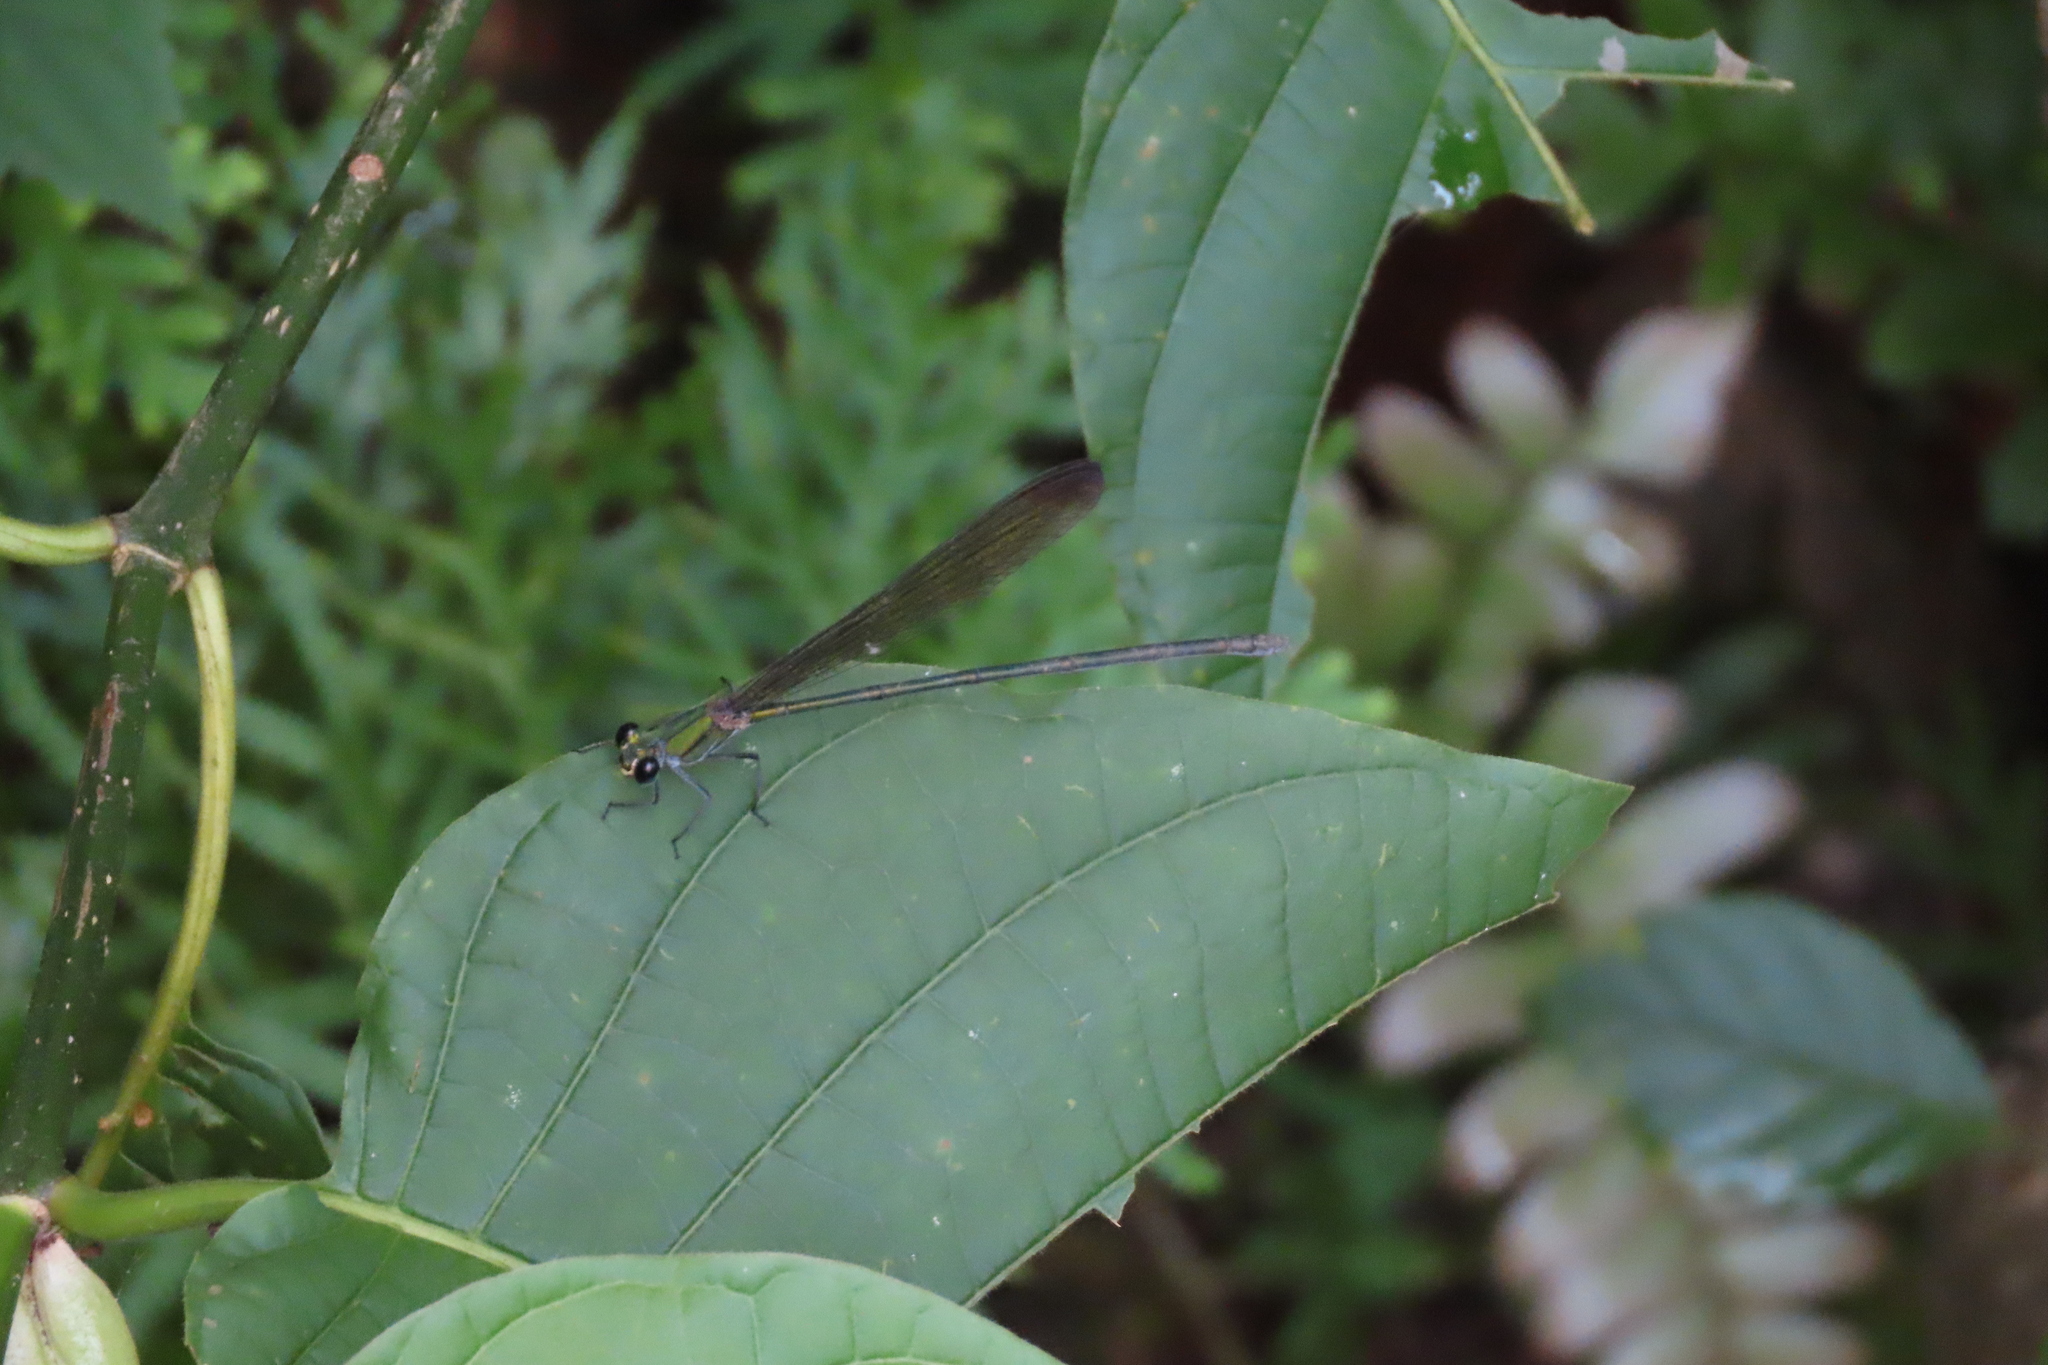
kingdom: Animalia
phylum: Arthropoda
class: Insecta
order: Odonata
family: Calopterygidae
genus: Vestalis
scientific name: Vestalis apicalis
